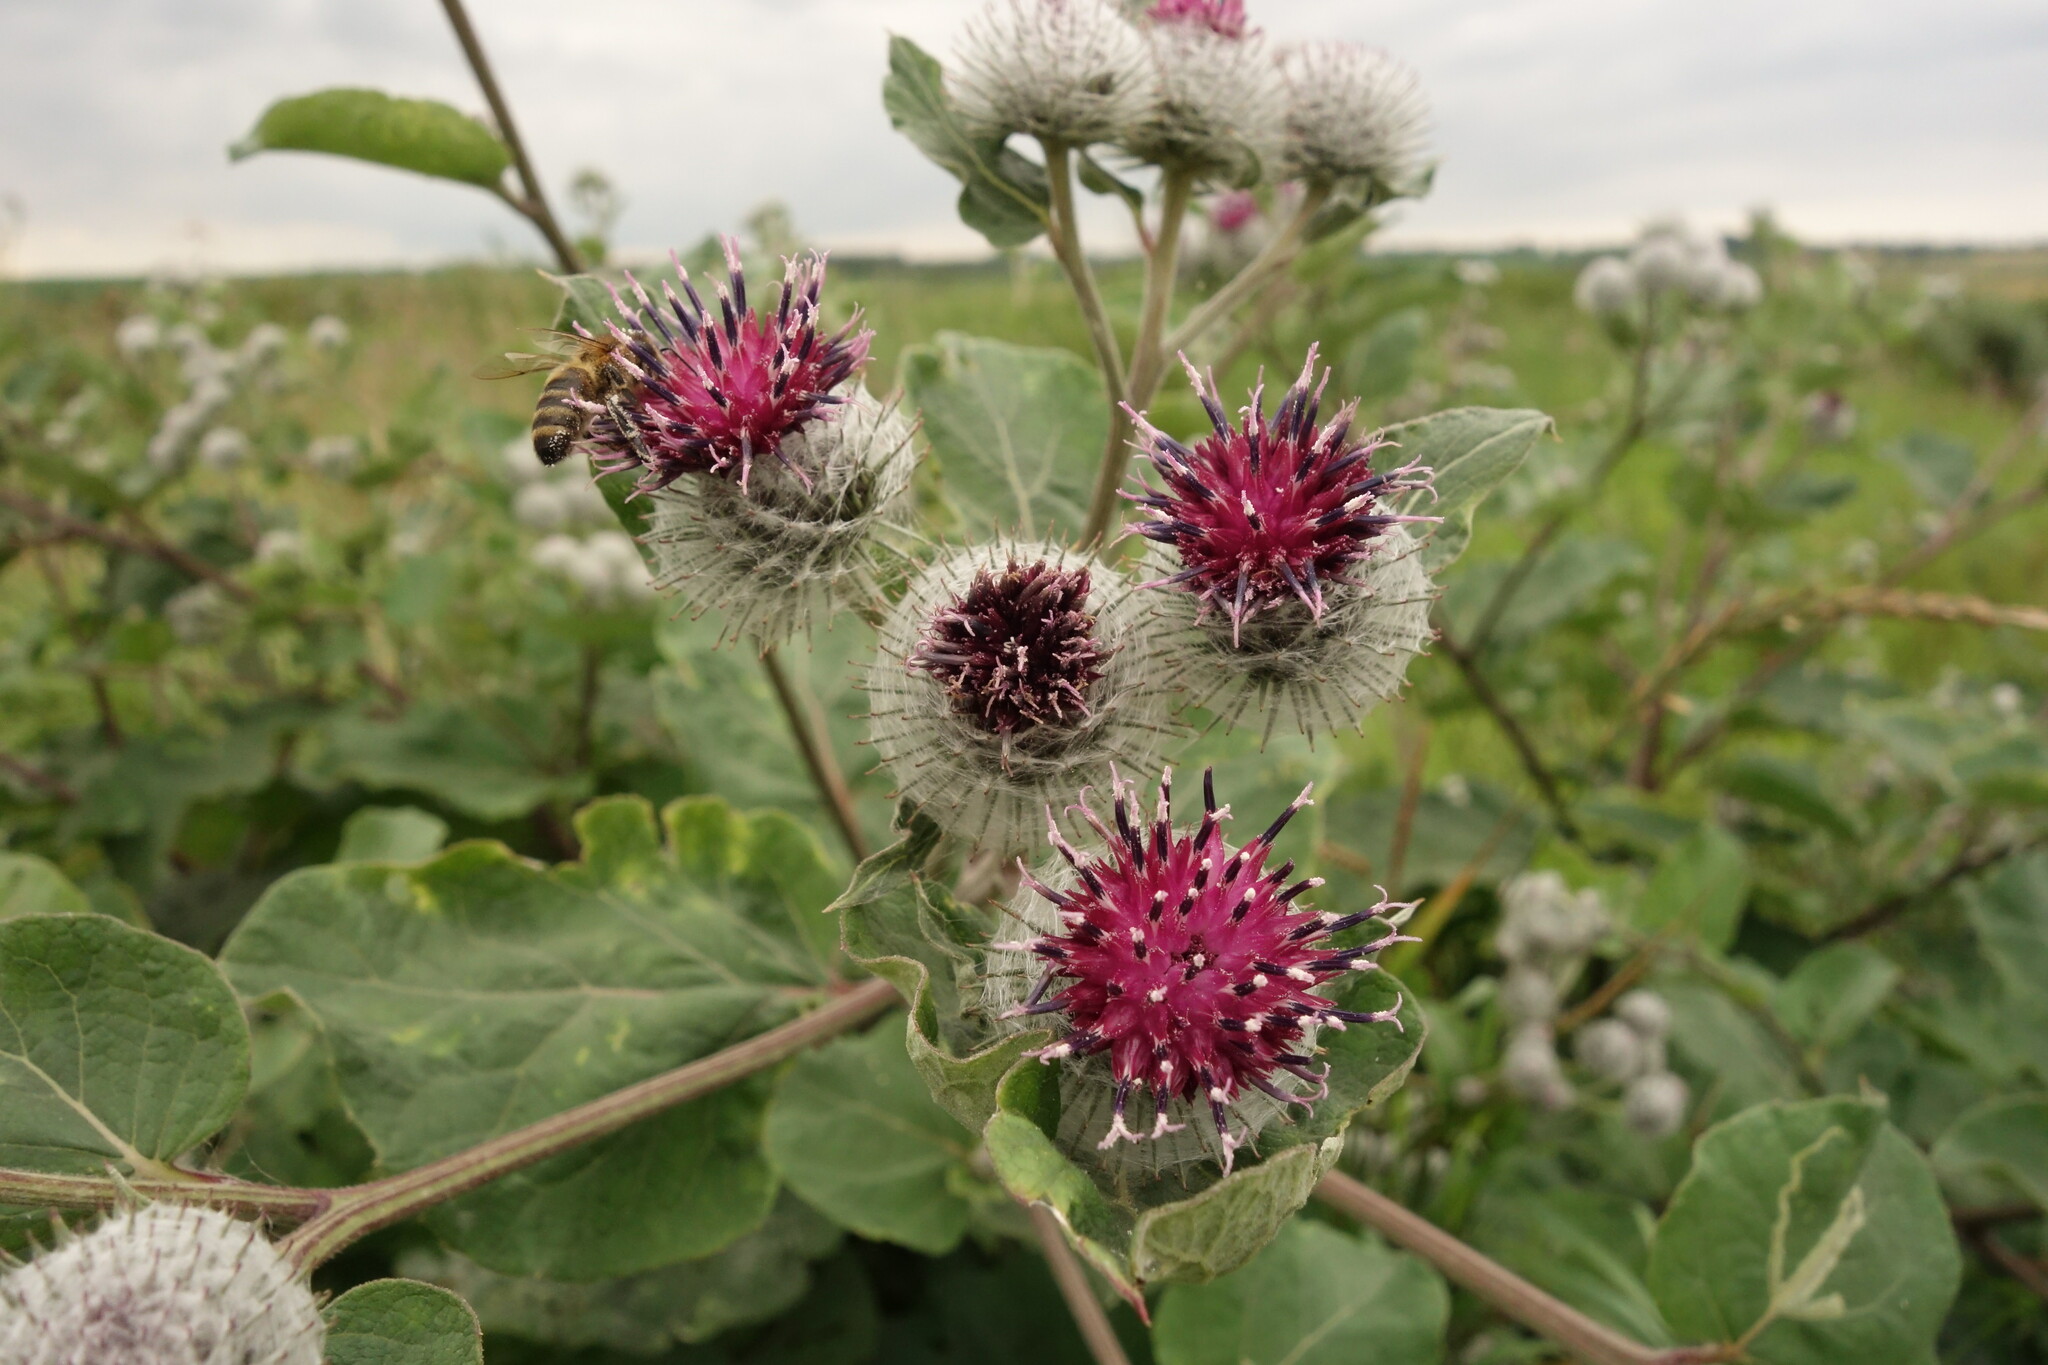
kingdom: Plantae
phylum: Tracheophyta
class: Magnoliopsida
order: Asterales
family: Asteraceae
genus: Arctium
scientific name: Arctium tomentosum
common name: Woolly burdock
